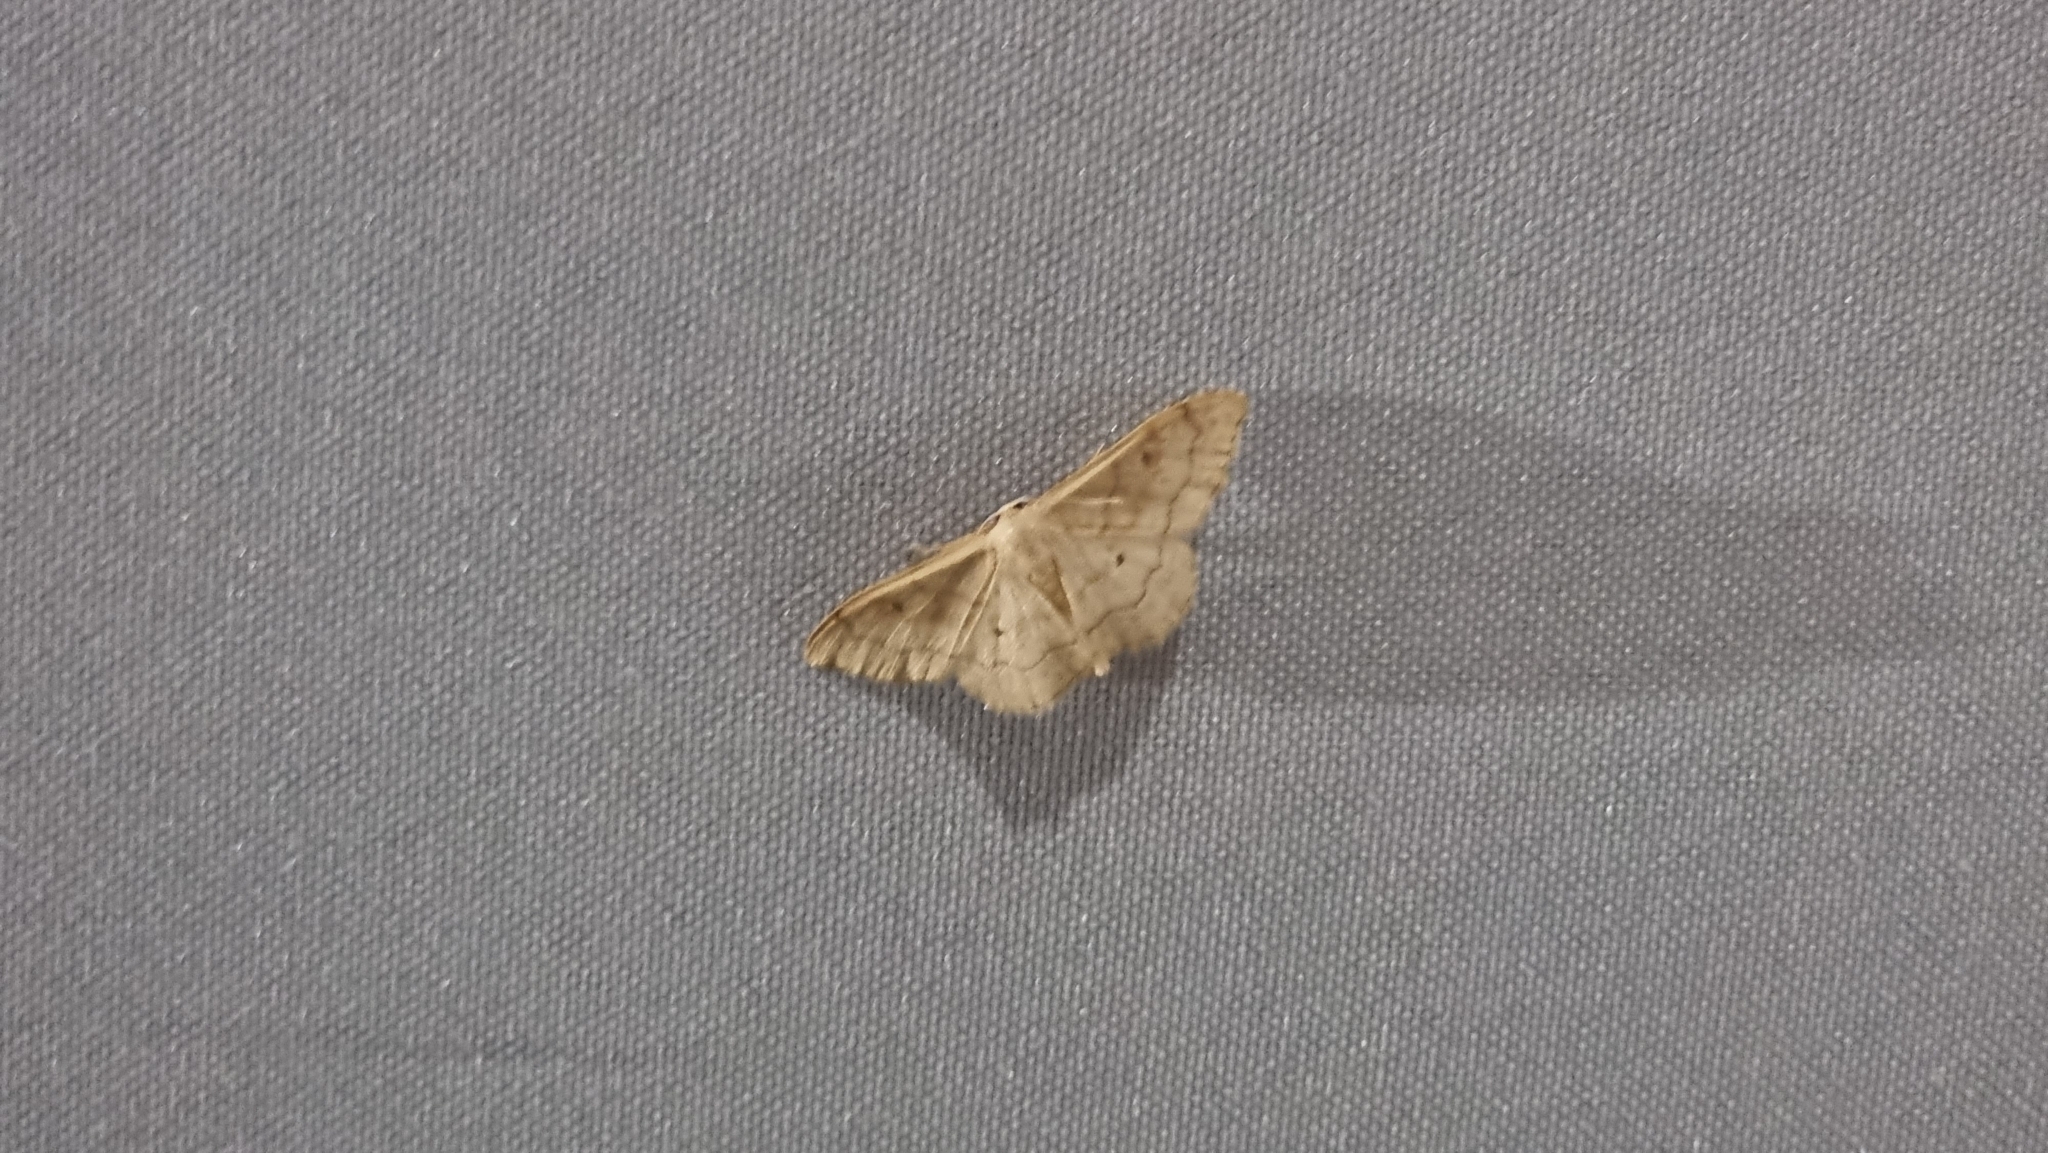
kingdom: Animalia
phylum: Arthropoda
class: Insecta
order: Lepidoptera
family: Geometridae
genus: Idaea
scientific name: Idaea bilinearia
